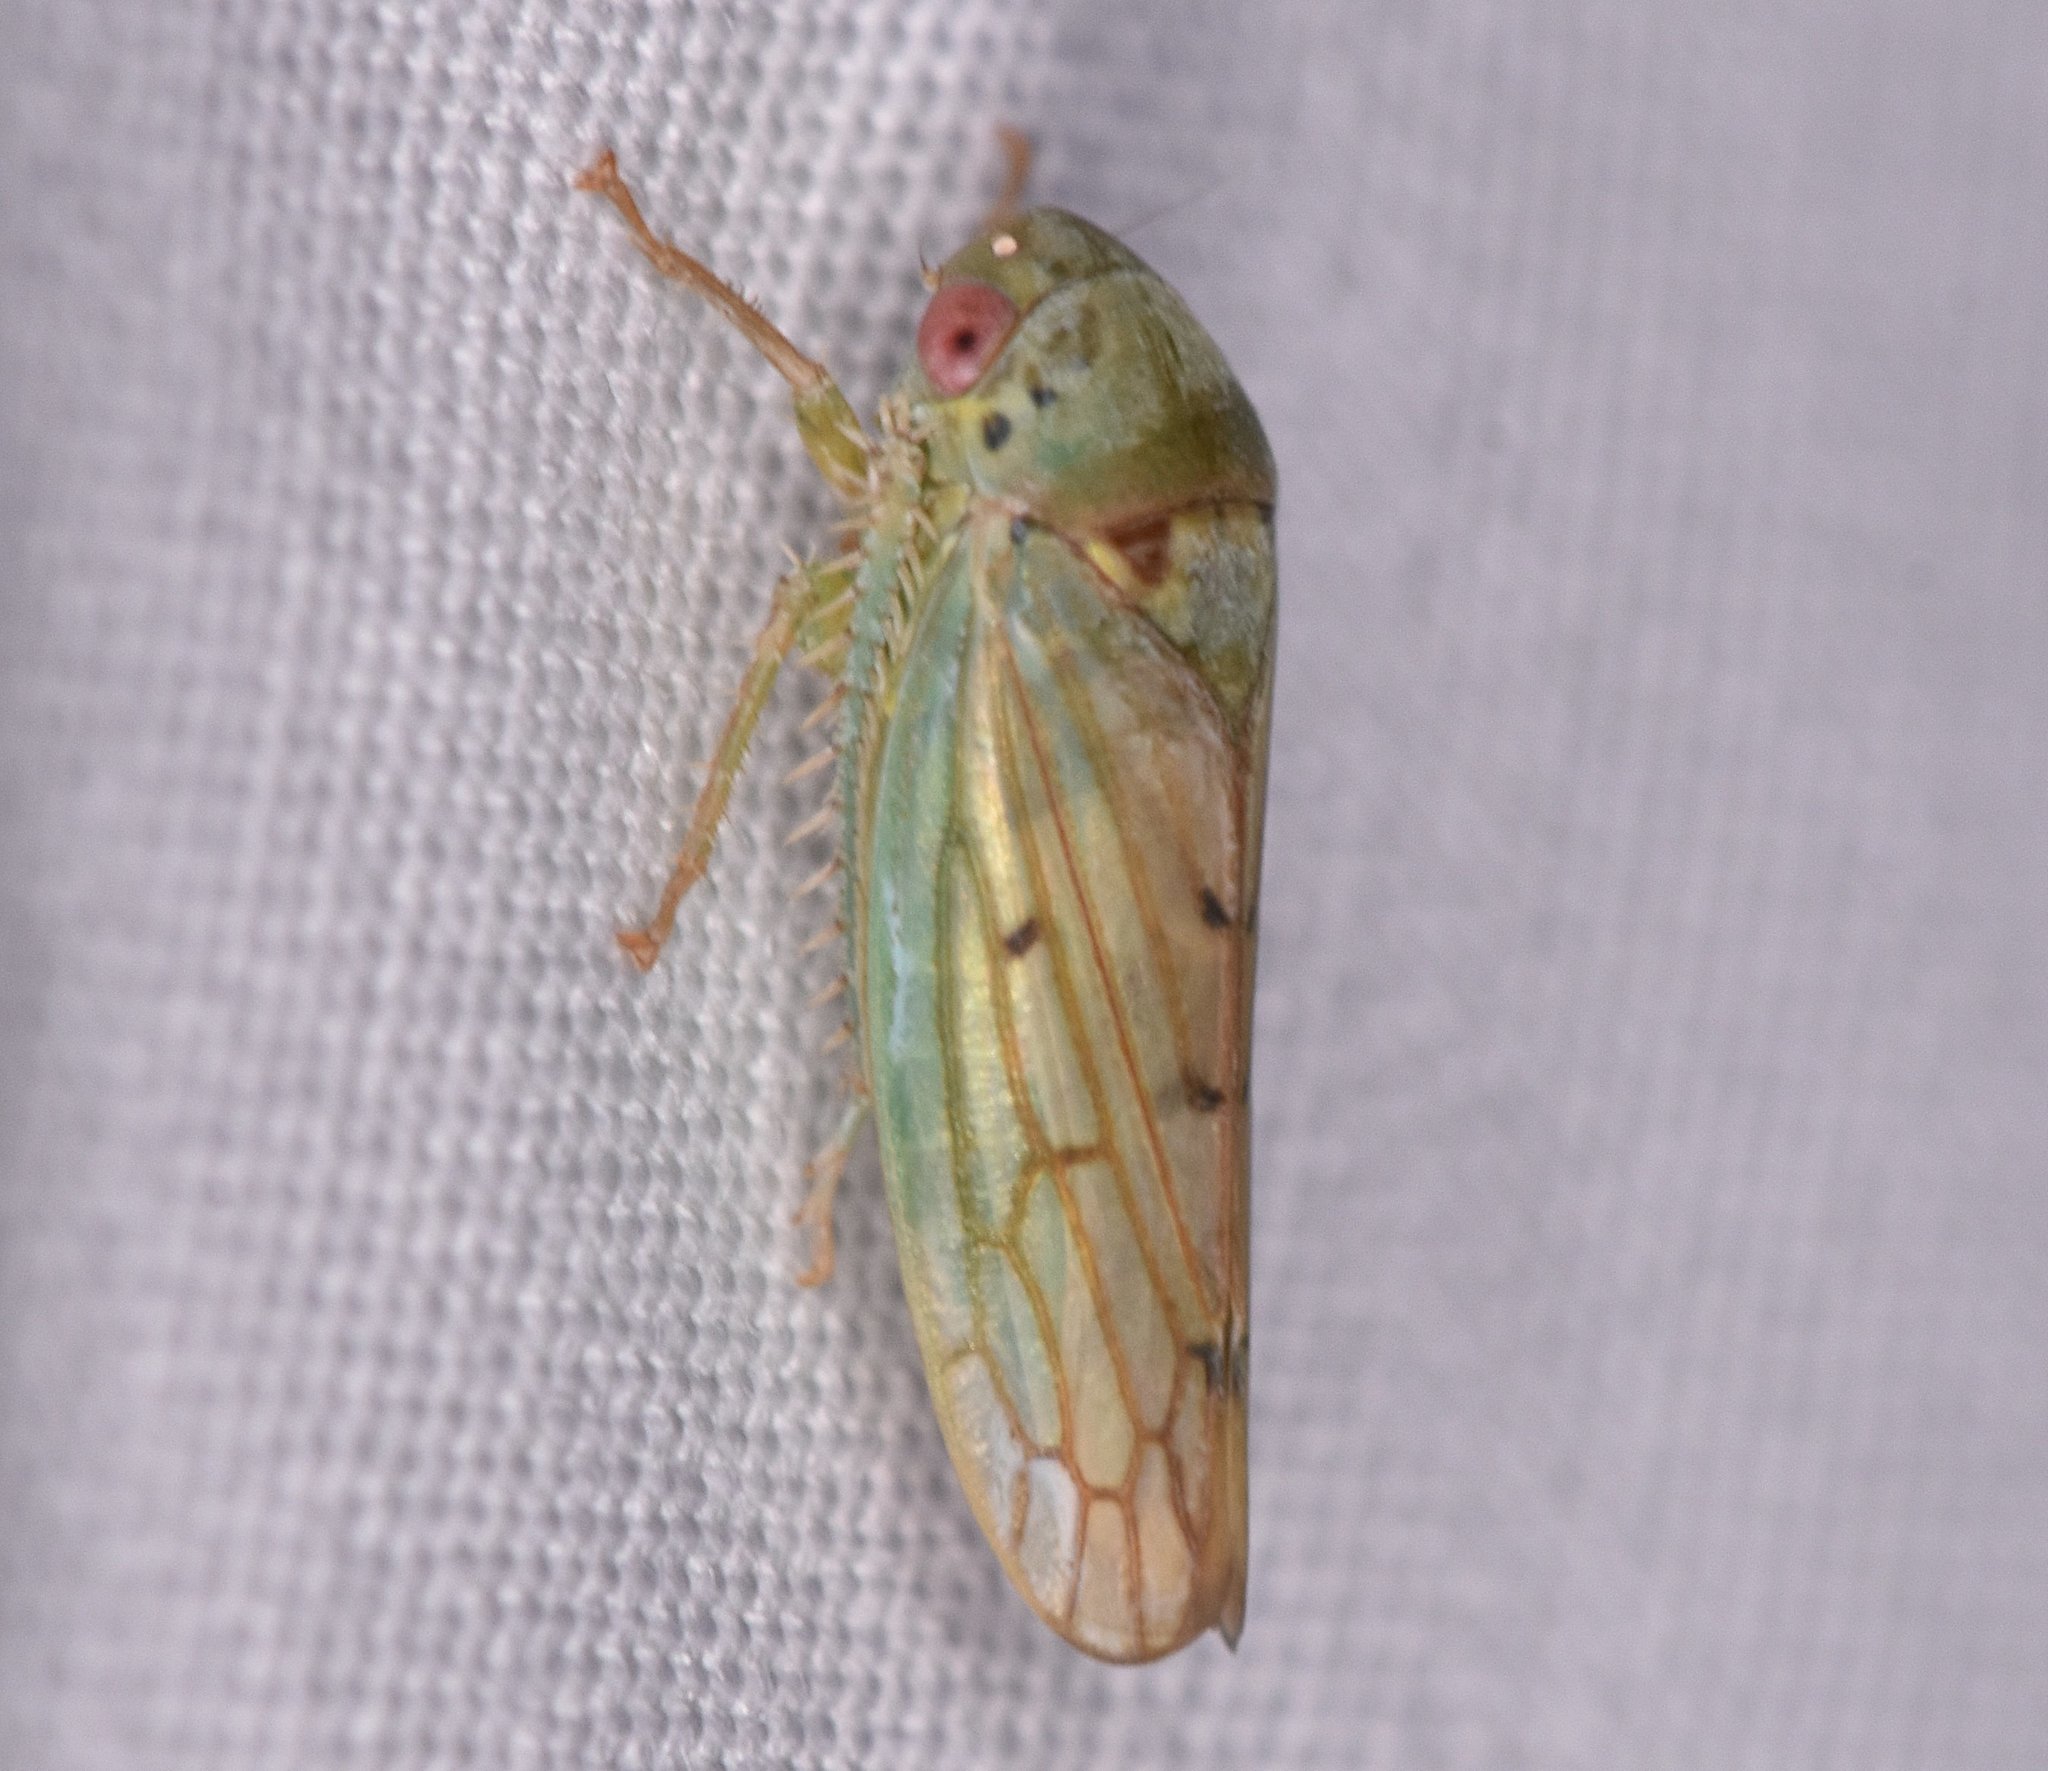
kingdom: Animalia
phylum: Arthropoda
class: Insecta
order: Hemiptera
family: Cicadellidae
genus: Polana
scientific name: Polana quadrinotata
